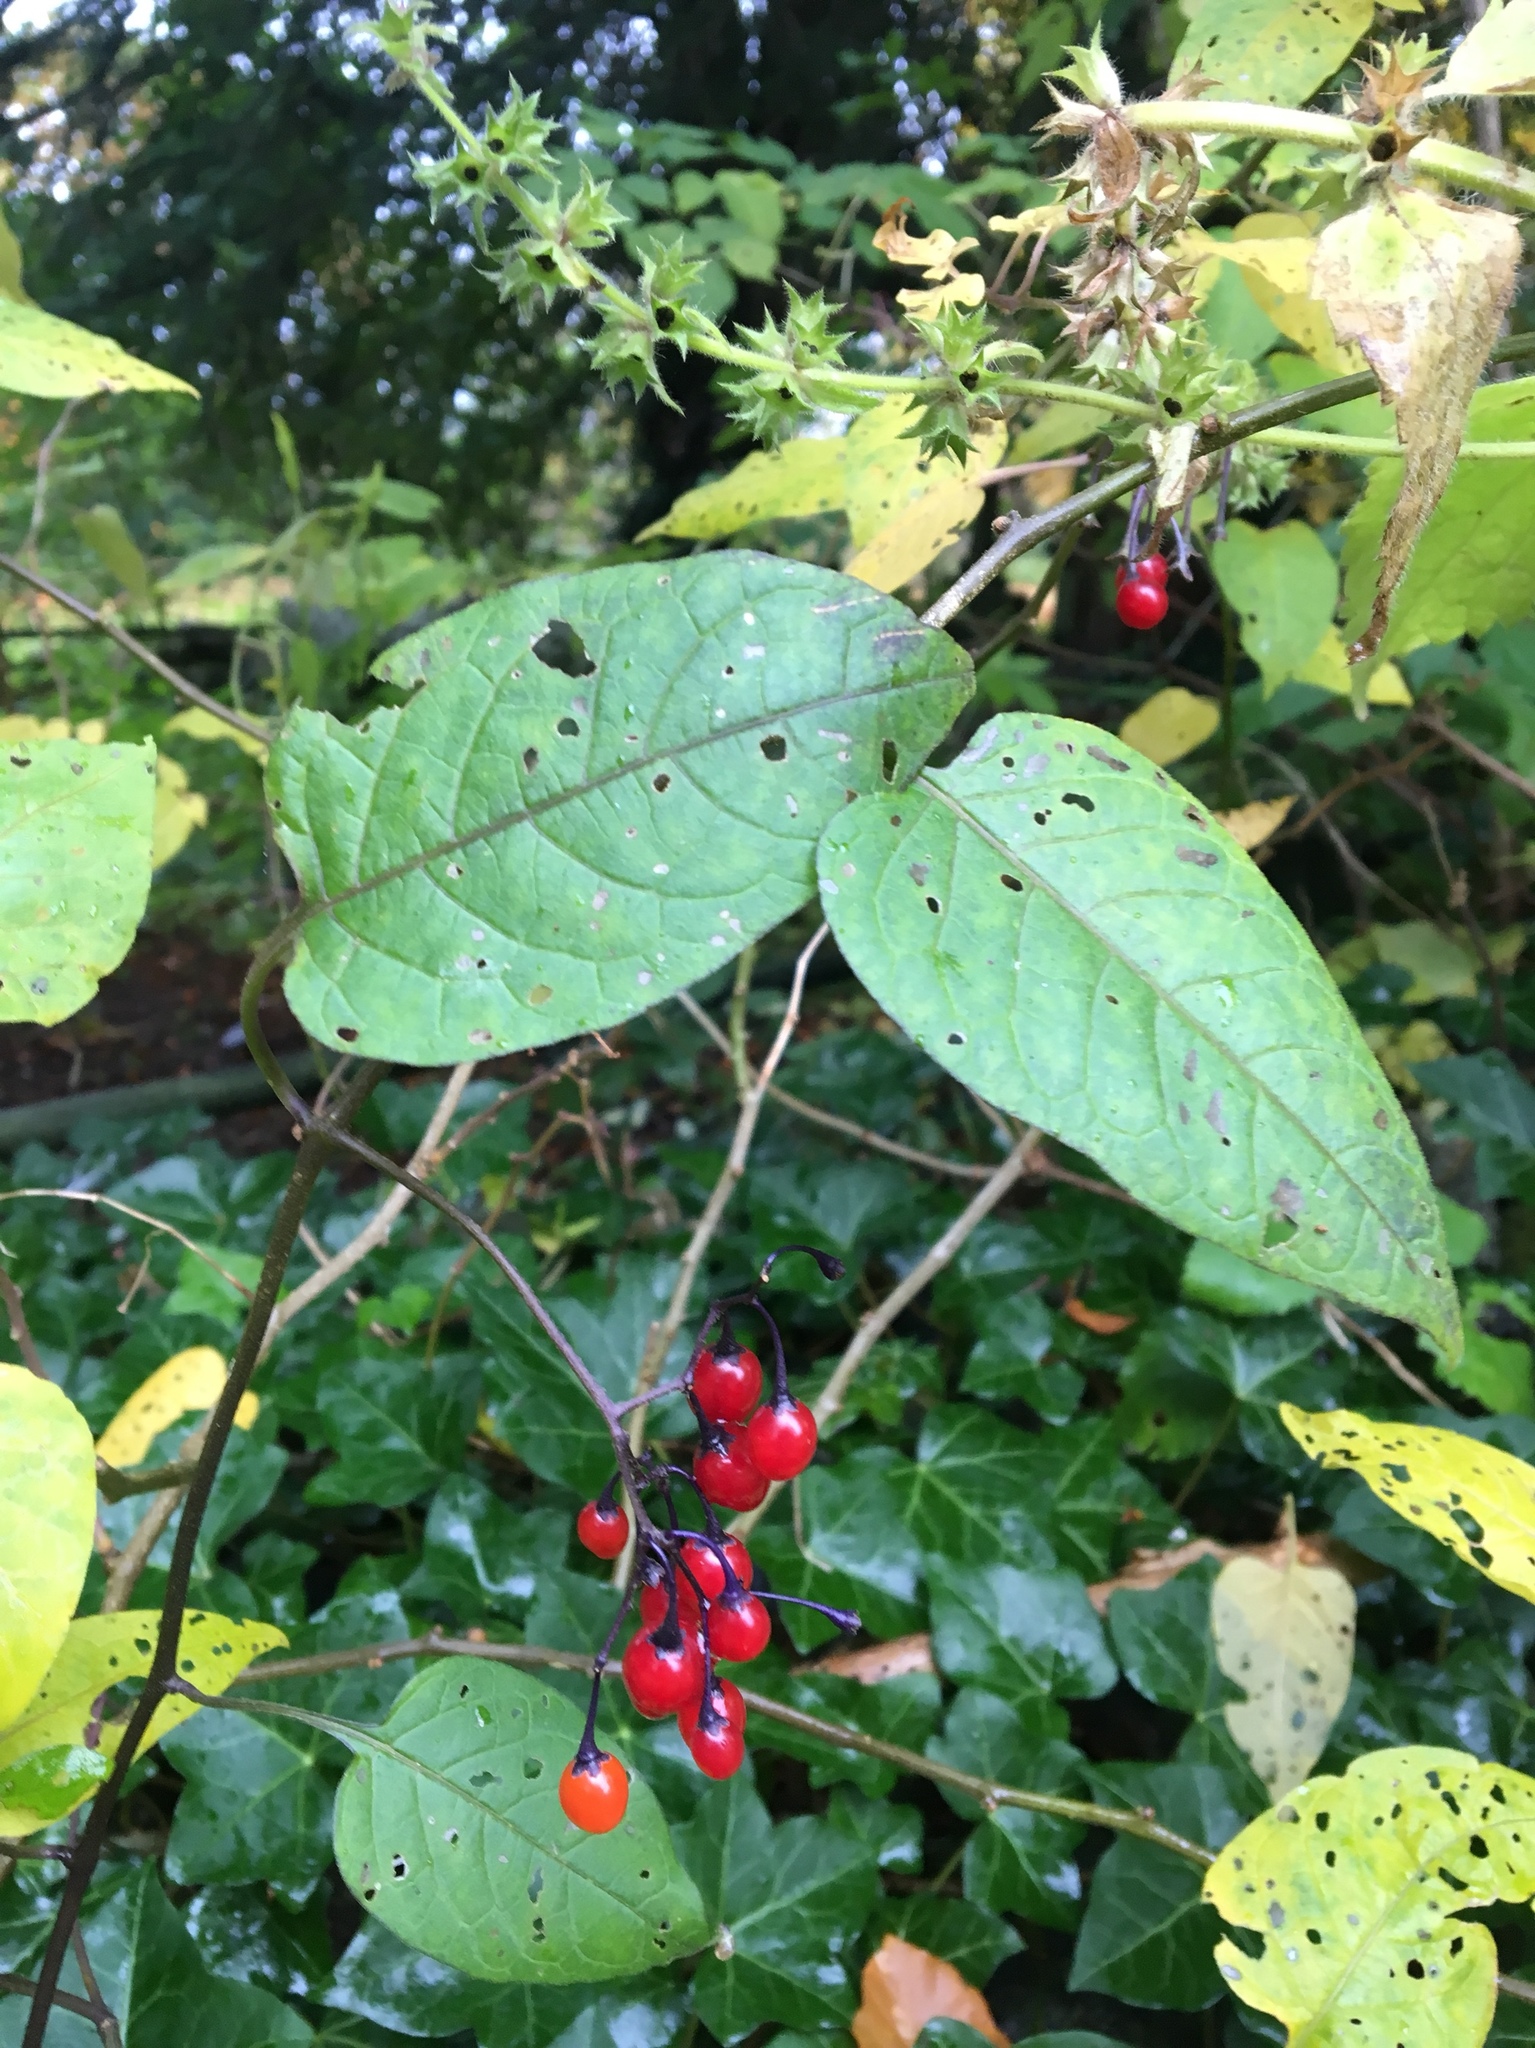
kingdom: Plantae
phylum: Tracheophyta
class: Magnoliopsida
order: Solanales
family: Solanaceae
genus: Solanum
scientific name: Solanum dulcamara
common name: Climbing nightshade
